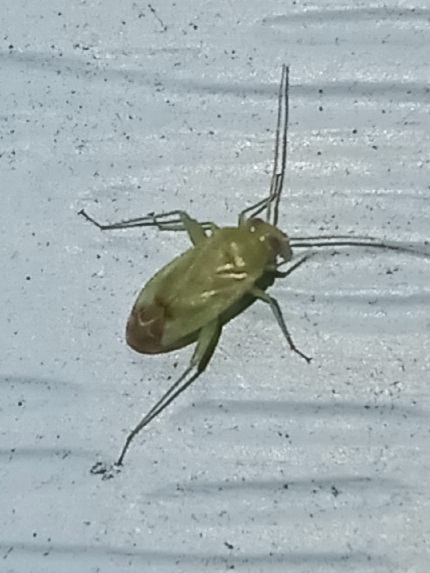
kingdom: Animalia
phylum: Arthropoda
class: Insecta
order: Hemiptera
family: Miridae
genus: Taylorilygus
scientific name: Taylorilygus apicalis
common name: Plant bug
